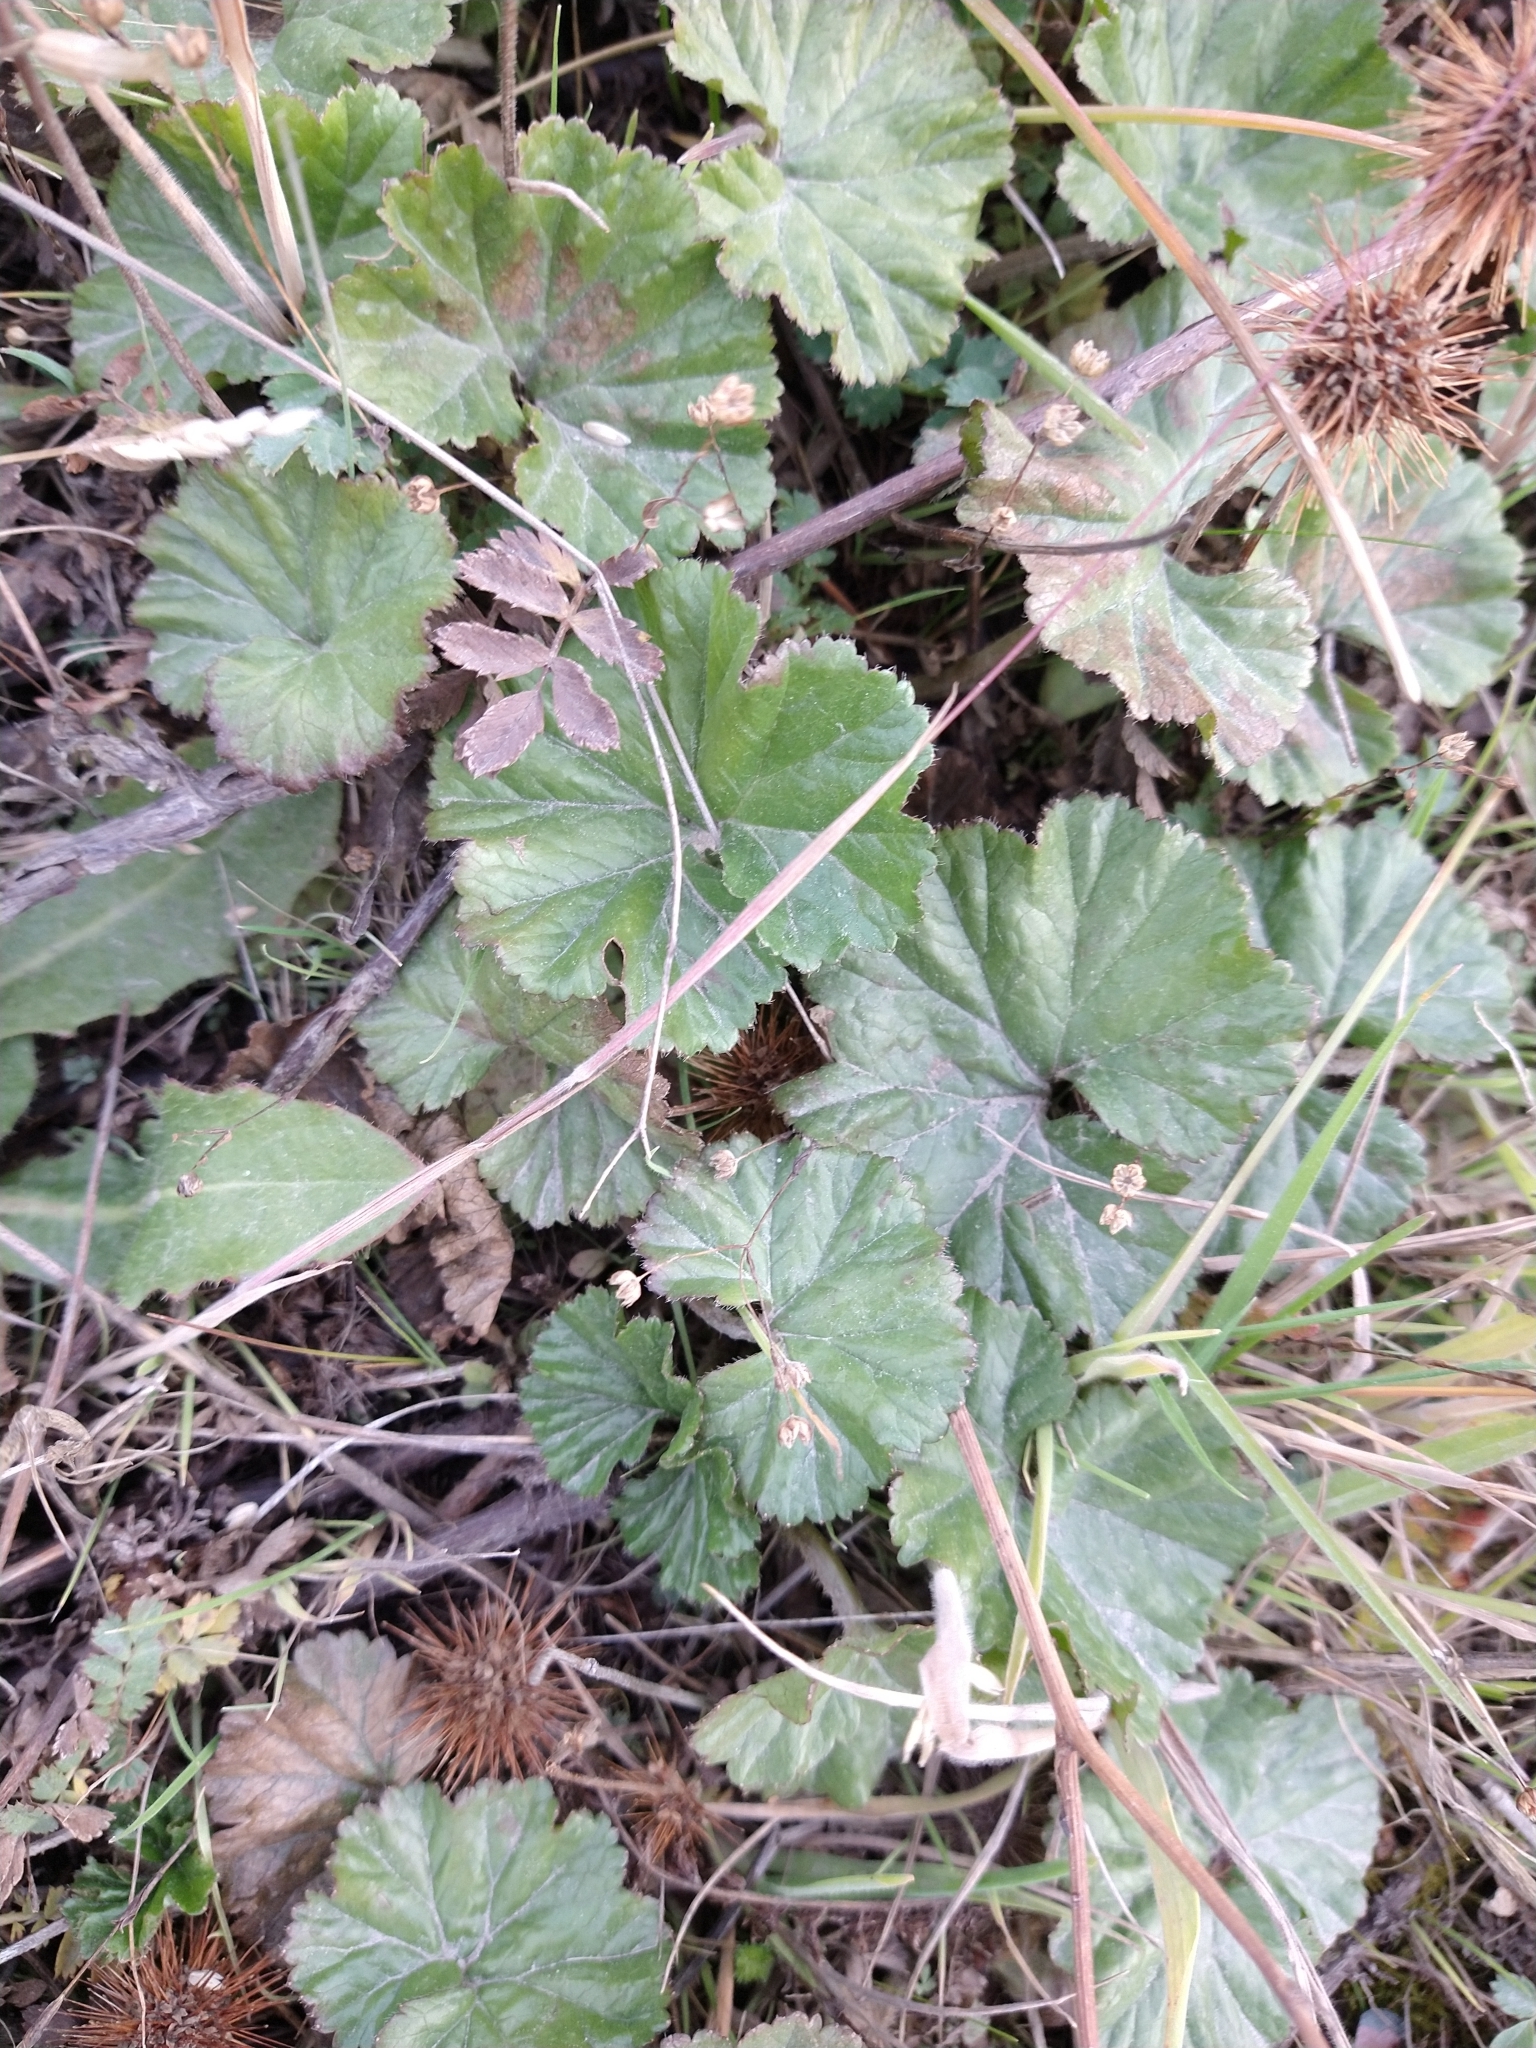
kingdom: Plantae
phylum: Tracheophyta
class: Magnoliopsida
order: Gunnerales
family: Gunneraceae
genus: Gunnera
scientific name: Gunnera magellanica
